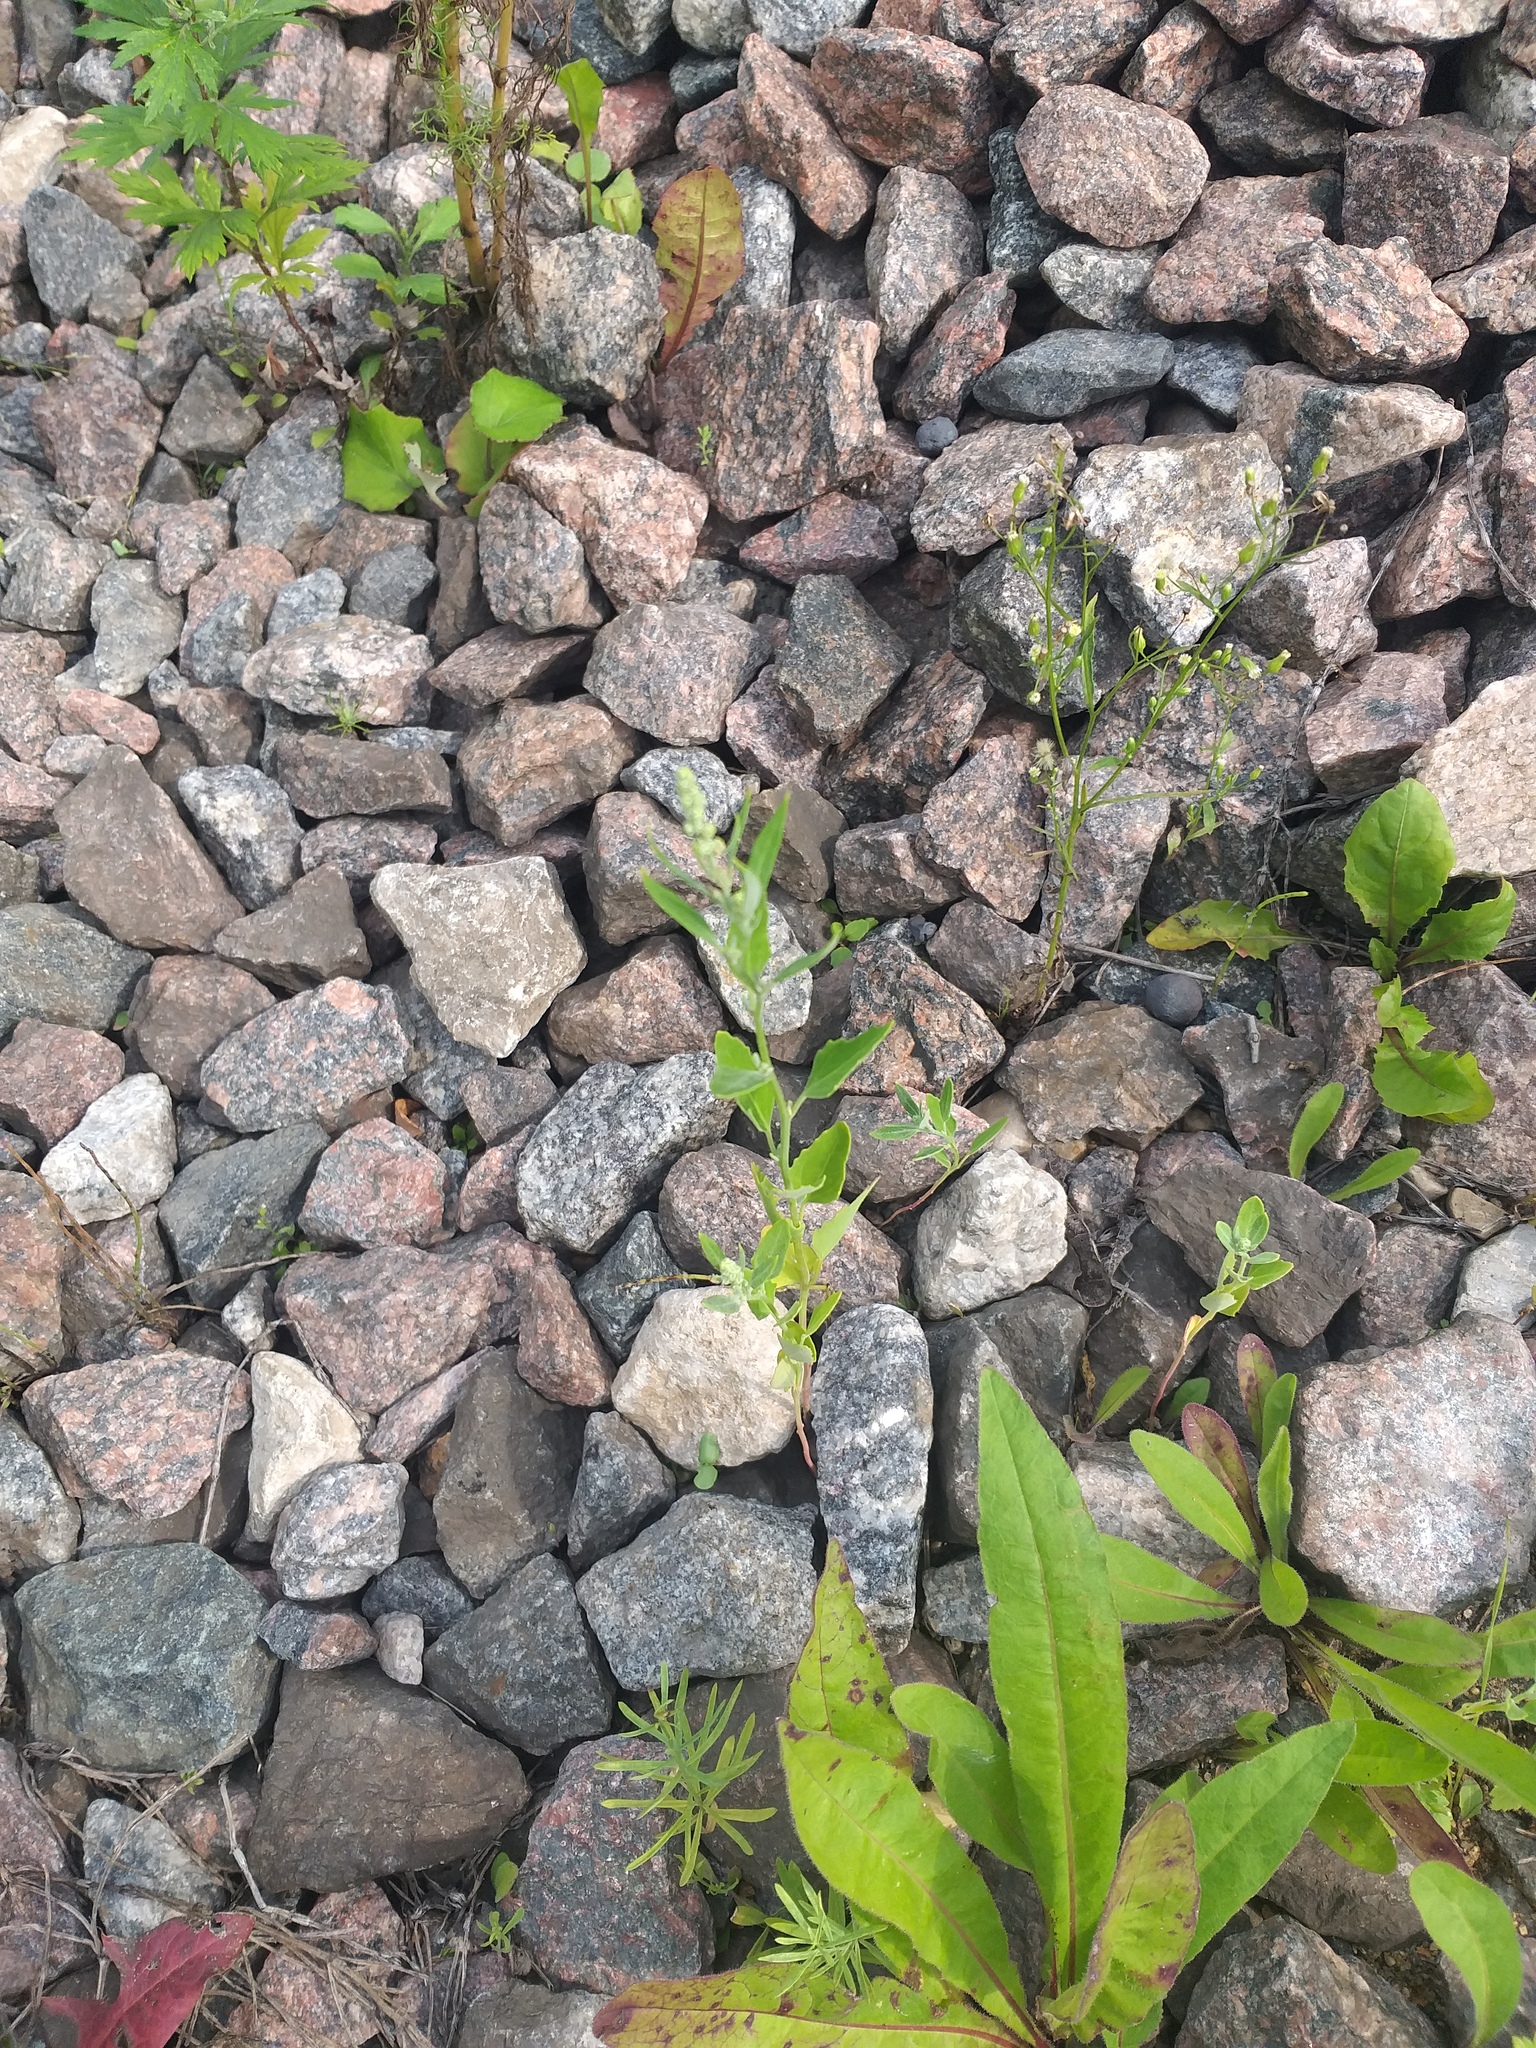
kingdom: Plantae
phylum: Tracheophyta
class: Magnoliopsida
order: Caryophyllales
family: Amaranthaceae
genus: Chenopodium
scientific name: Chenopodium album
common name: Fat-hen
